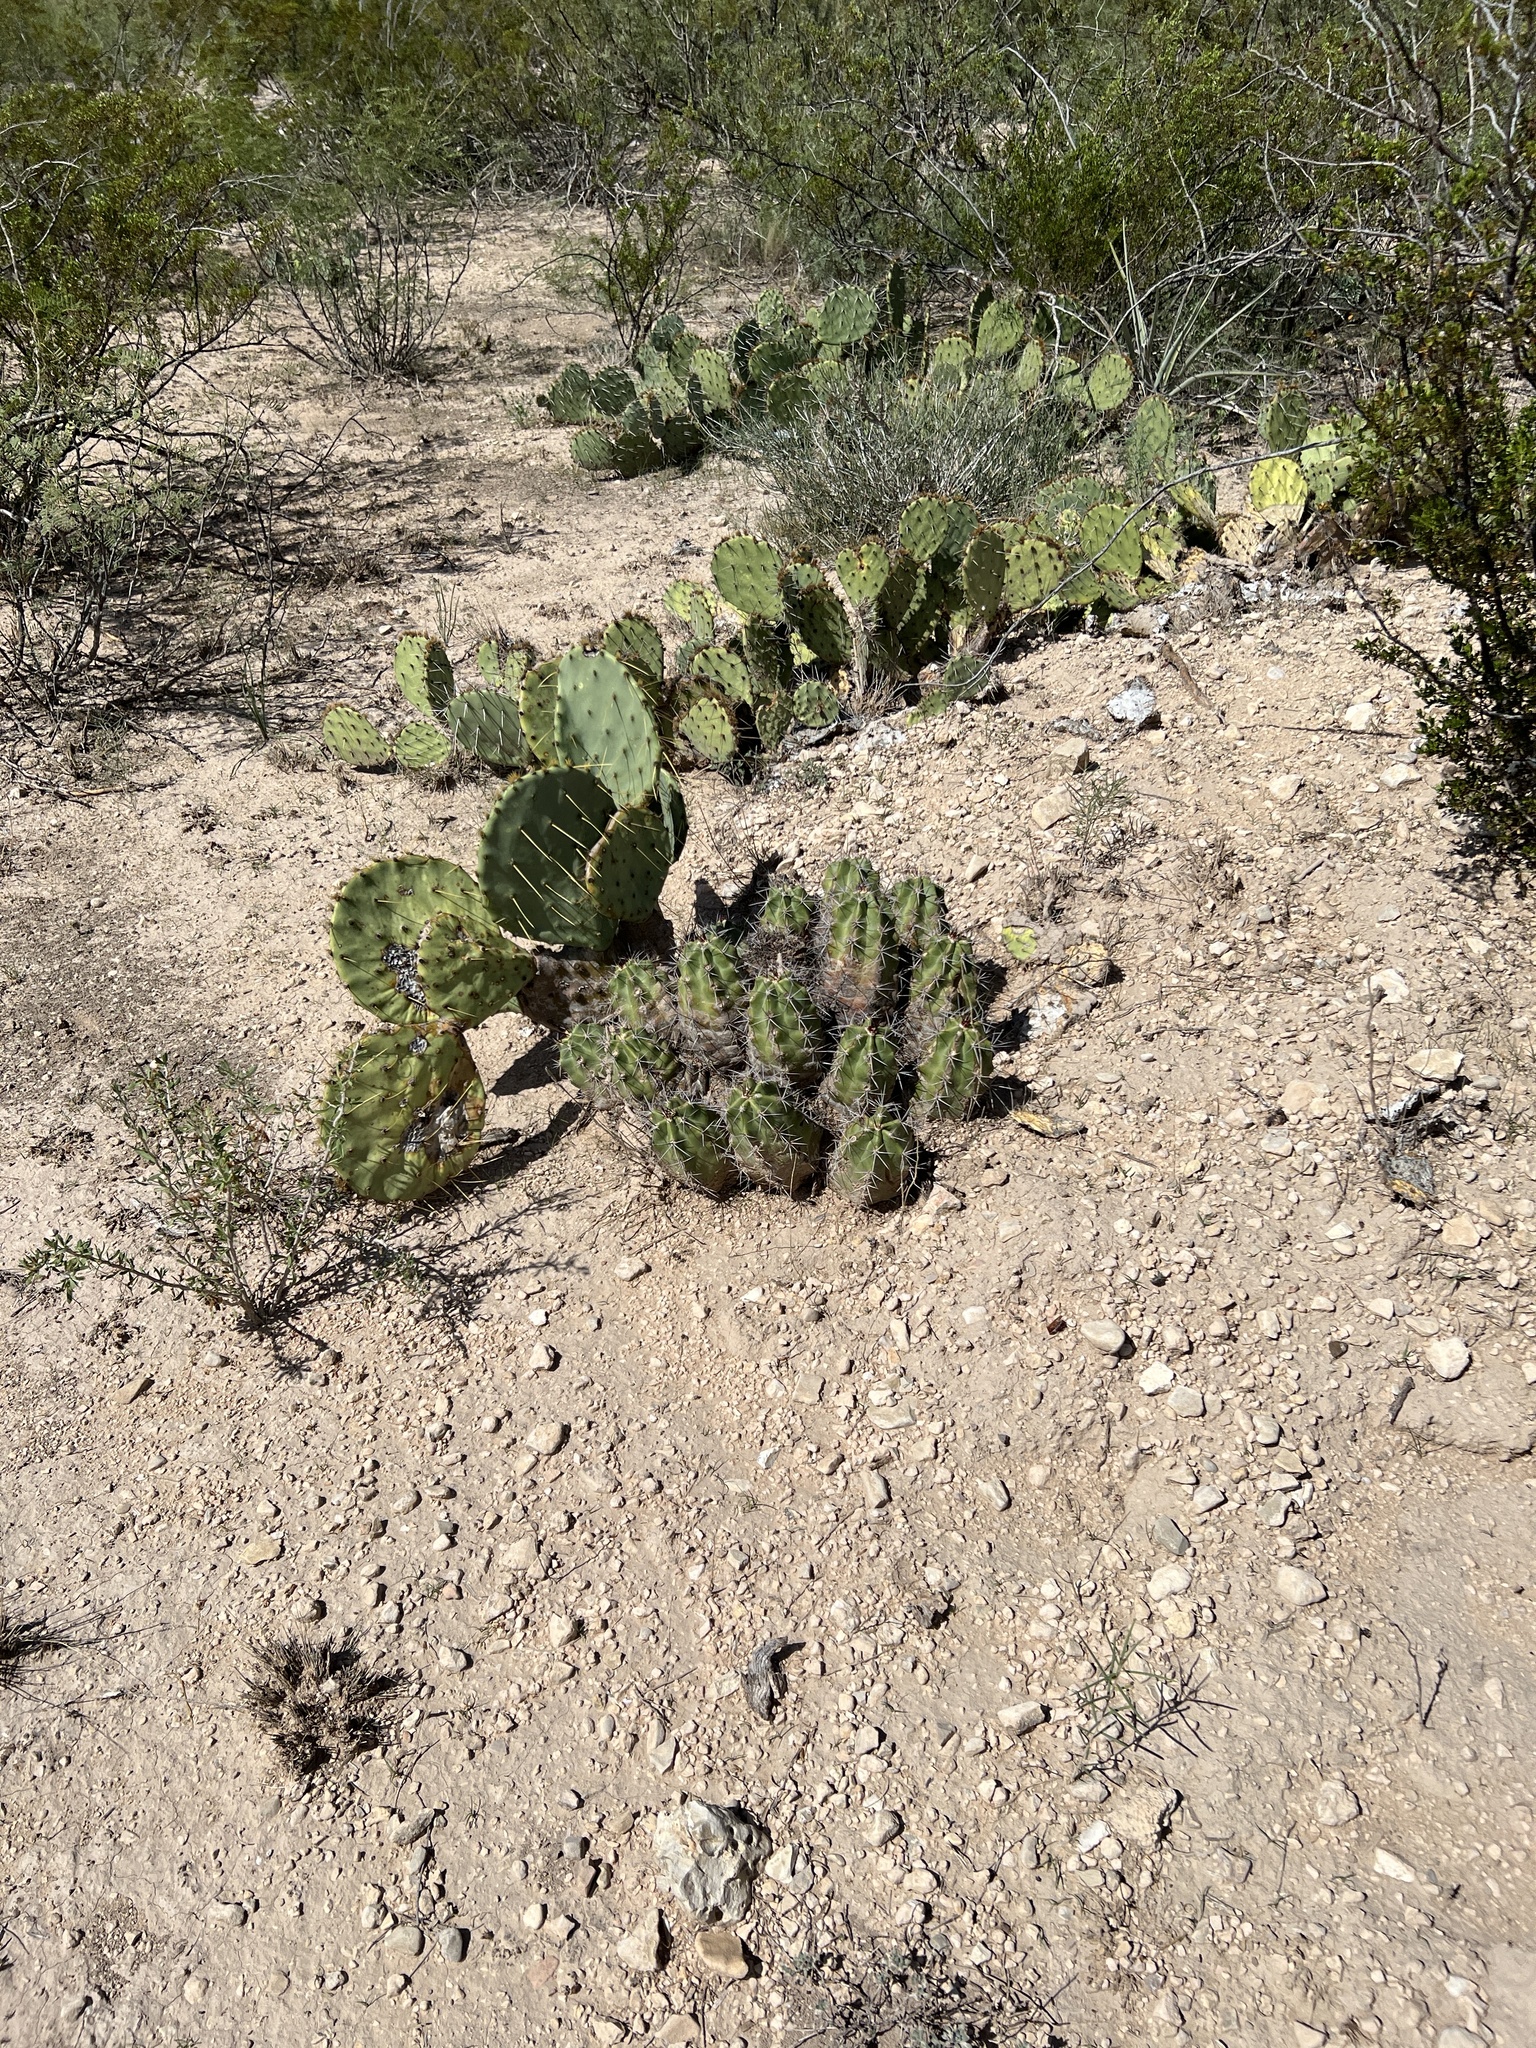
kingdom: Plantae
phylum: Tracheophyta
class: Magnoliopsida
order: Caryophyllales
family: Cactaceae
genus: Echinocereus
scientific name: Echinocereus coccineus
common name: Scarlet hedgehog cactus
